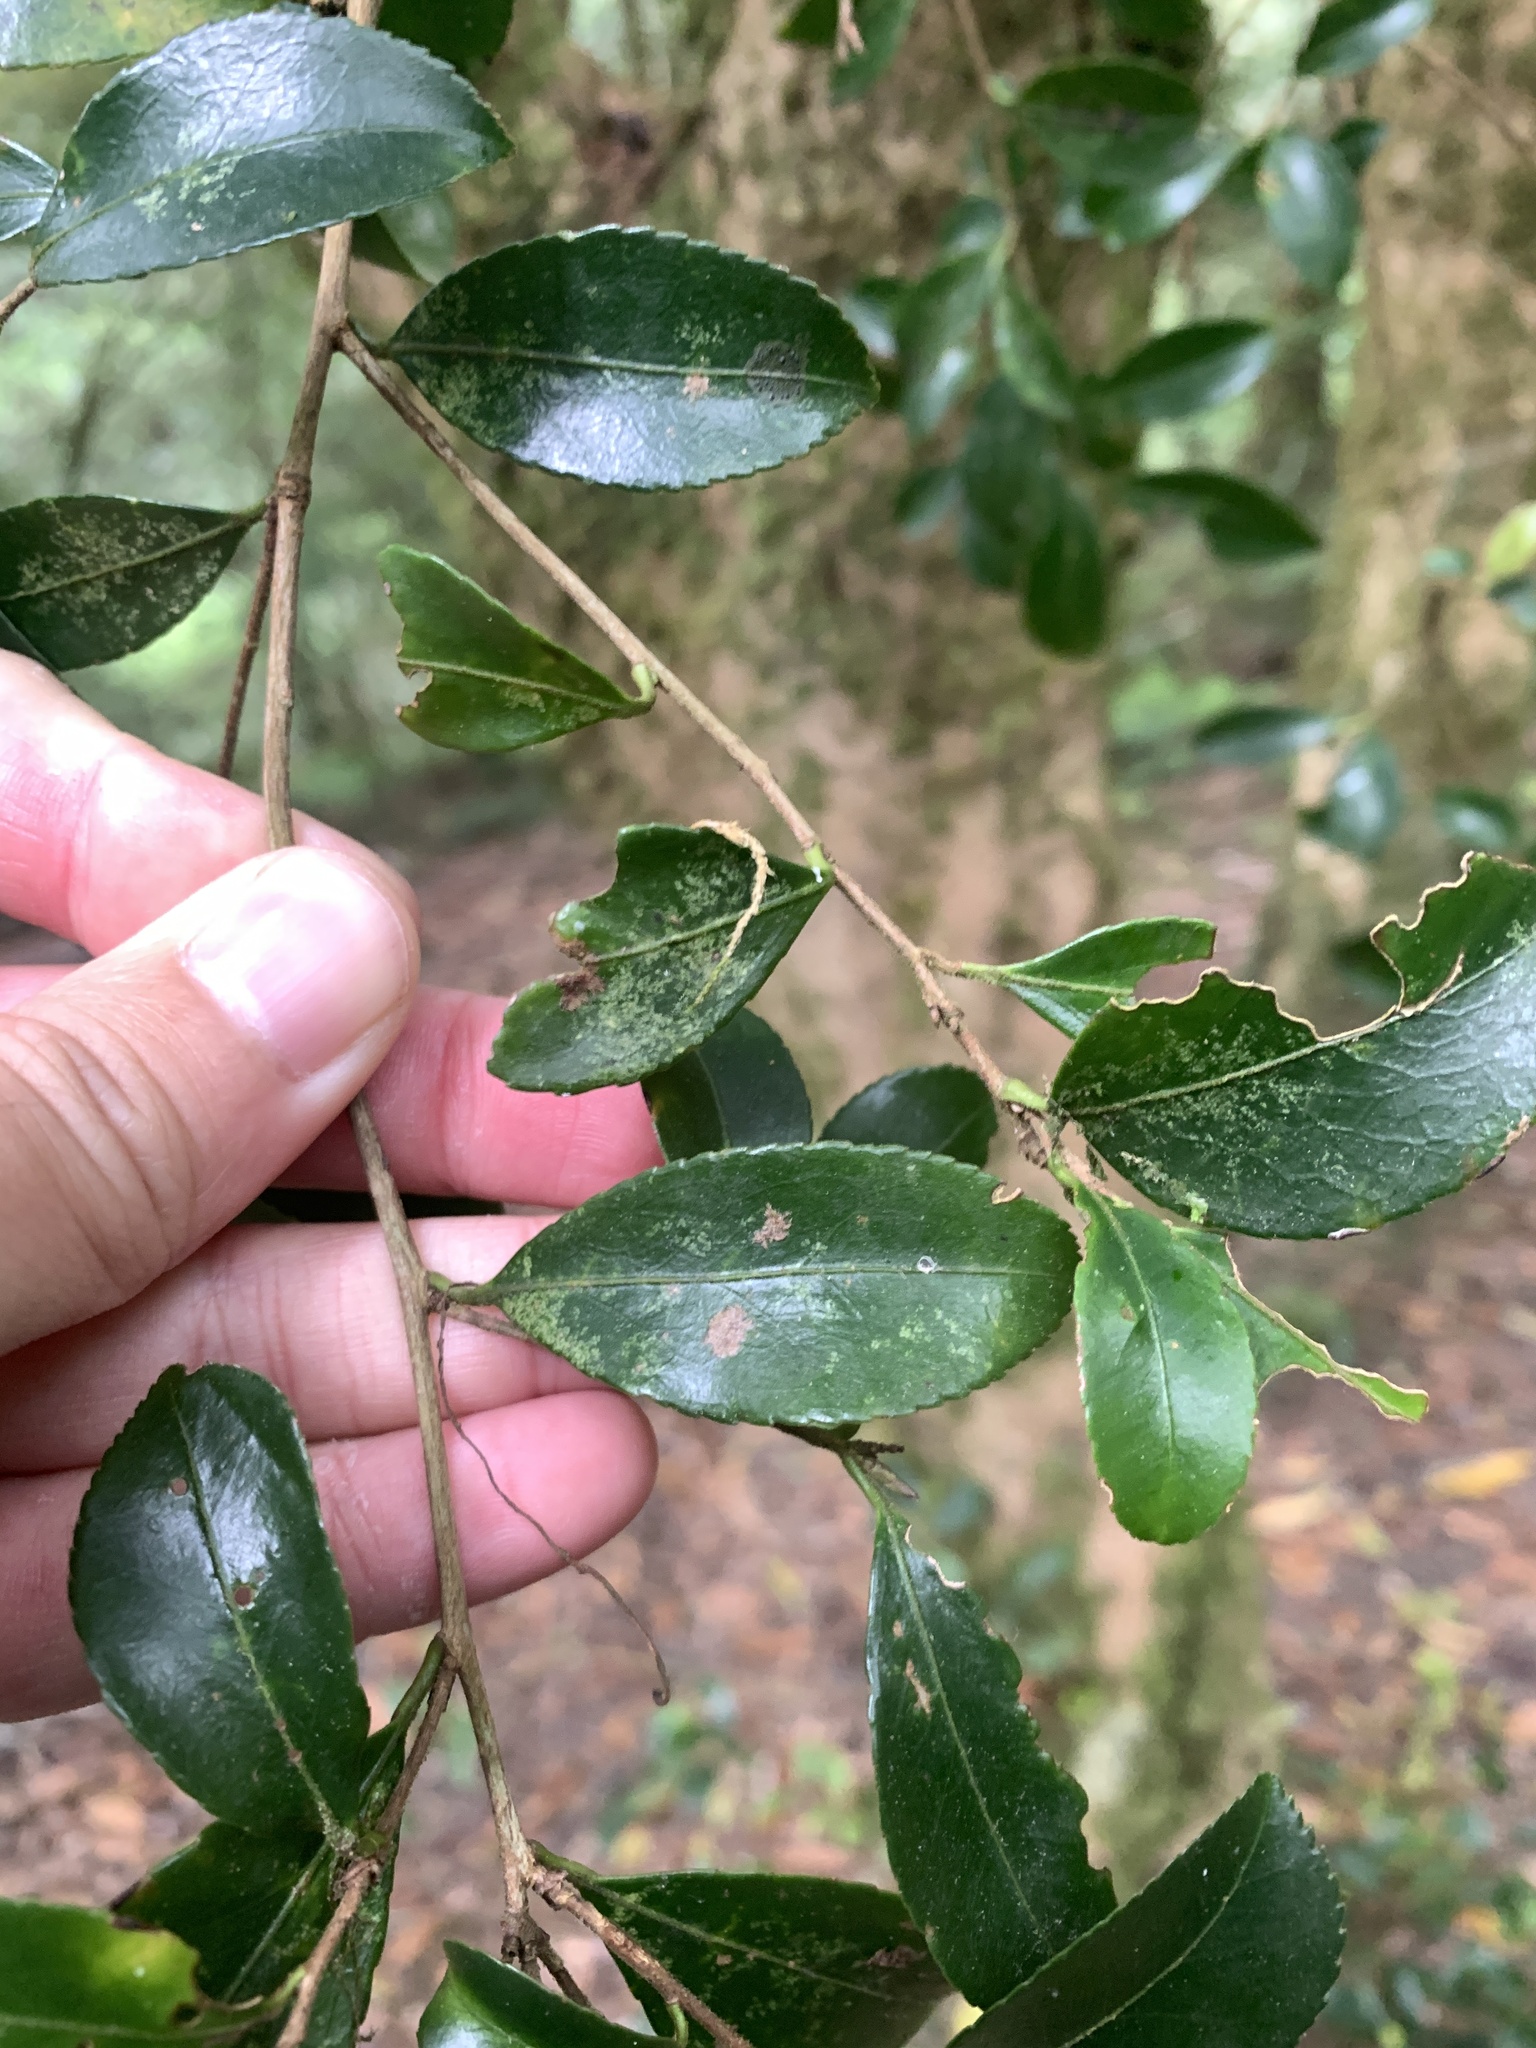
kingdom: Plantae
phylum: Tracheophyta
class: Magnoliopsida
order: Ericales
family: Theaceae
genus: Camellia
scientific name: Camellia brevistyla
